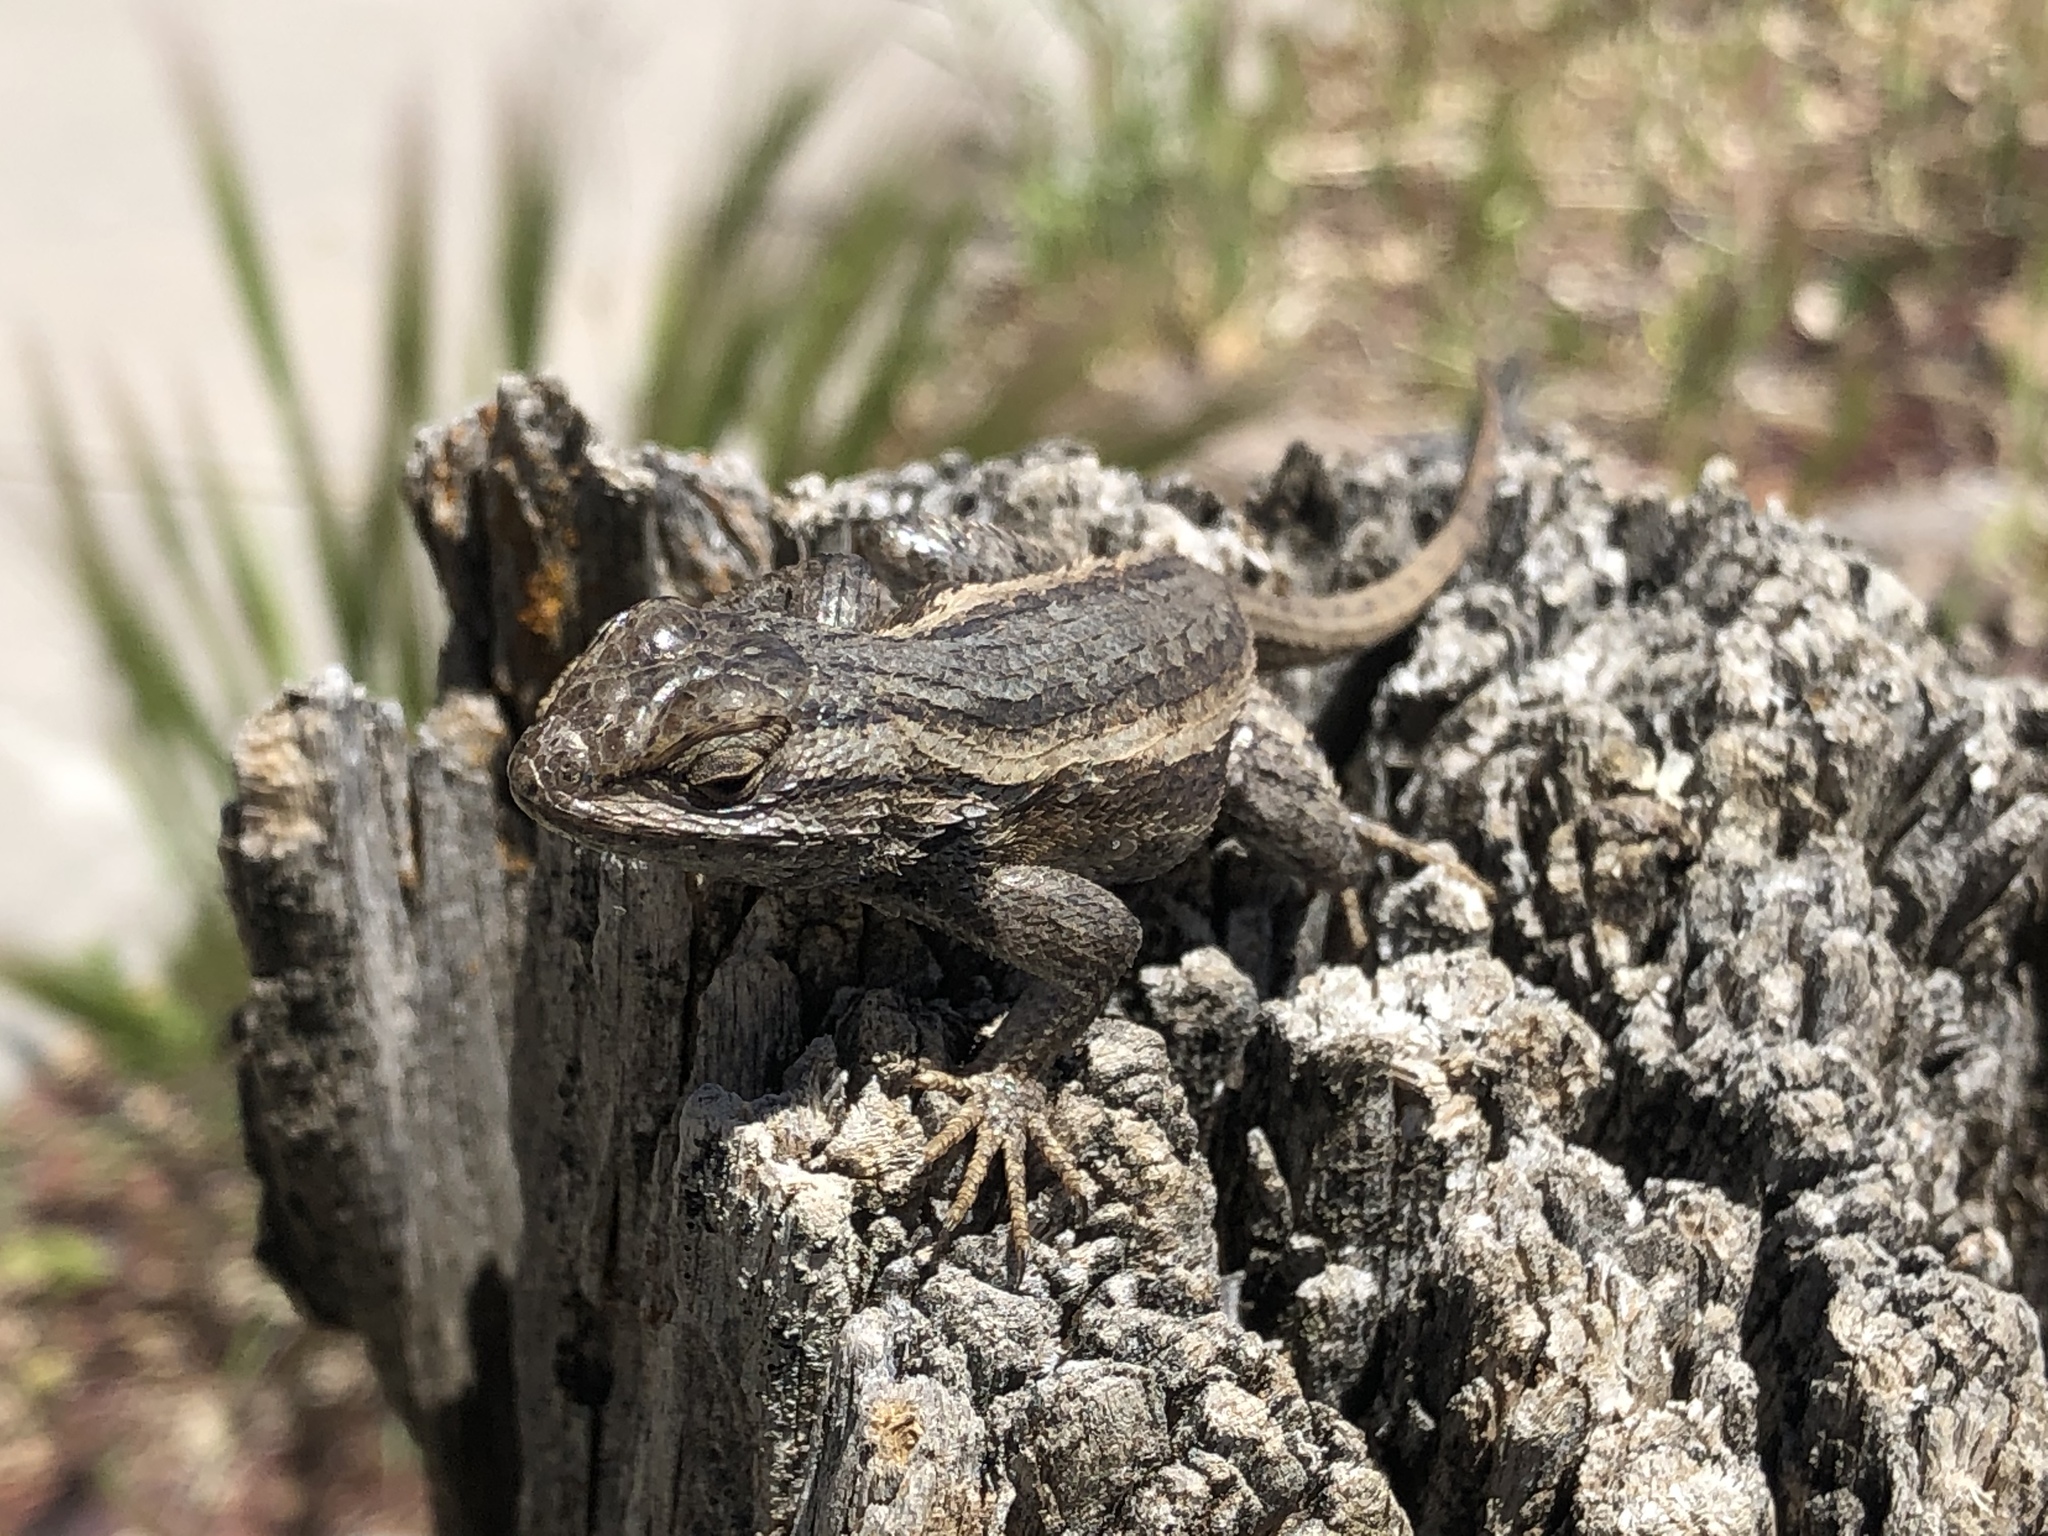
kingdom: Animalia
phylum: Chordata
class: Squamata
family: Phrynosomatidae
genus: Sceloporus
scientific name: Sceloporus cowlesi
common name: White sands prairie lizard
